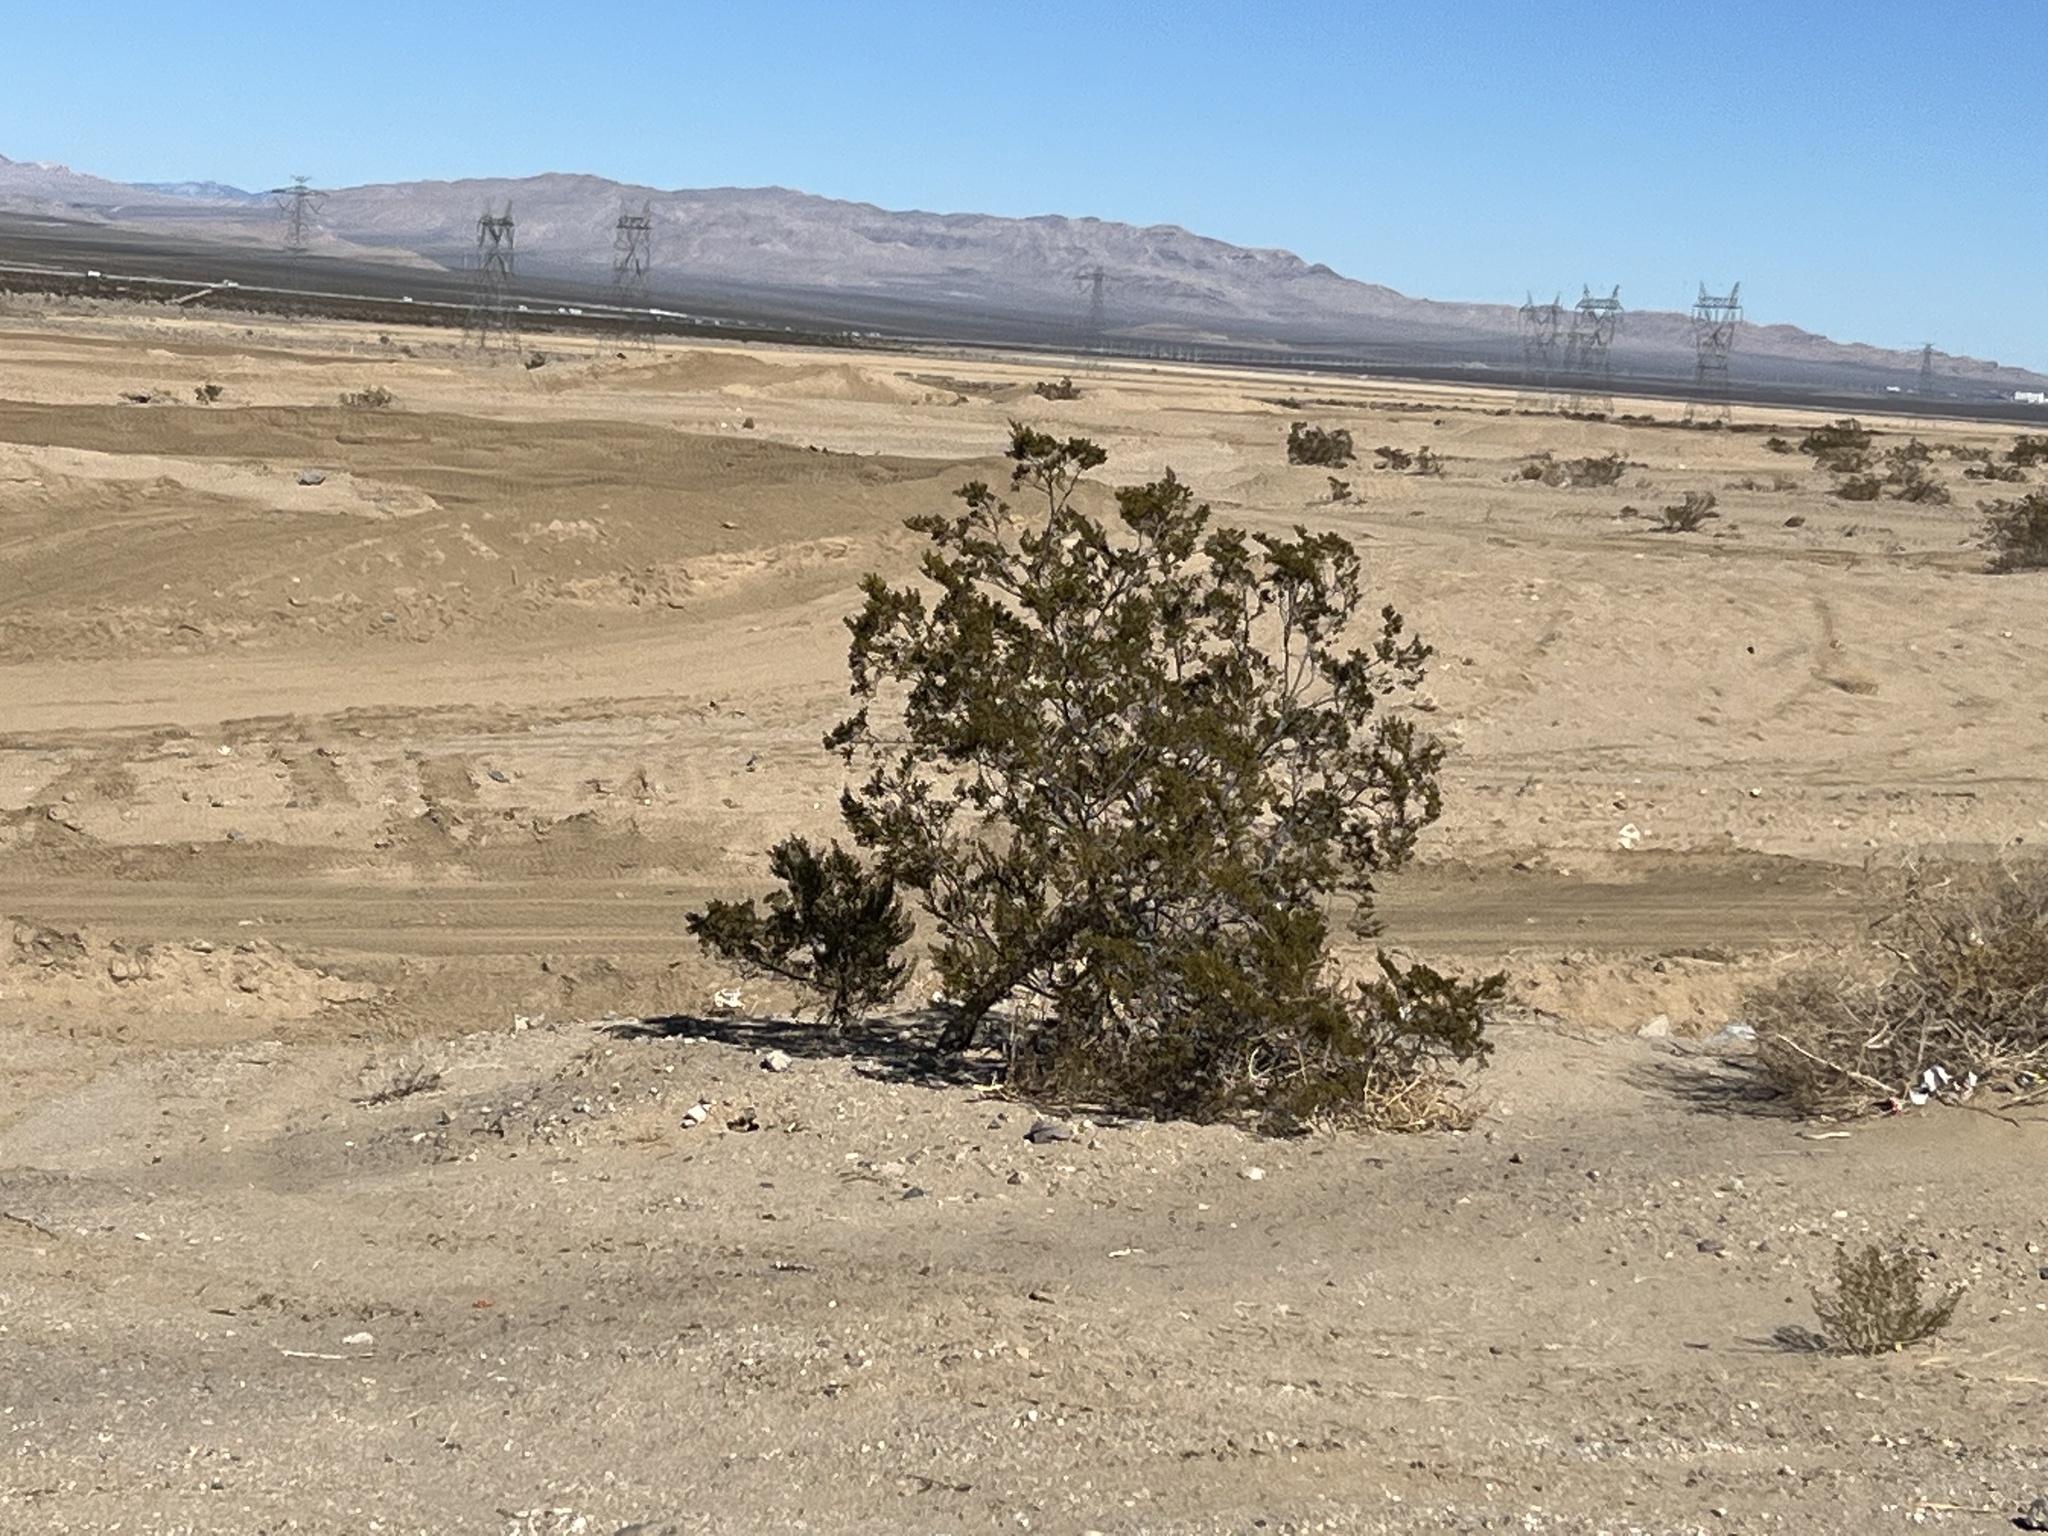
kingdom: Plantae
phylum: Tracheophyta
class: Magnoliopsida
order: Zygophyllales
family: Zygophyllaceae
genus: Larrea
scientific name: Larrea tridentata
